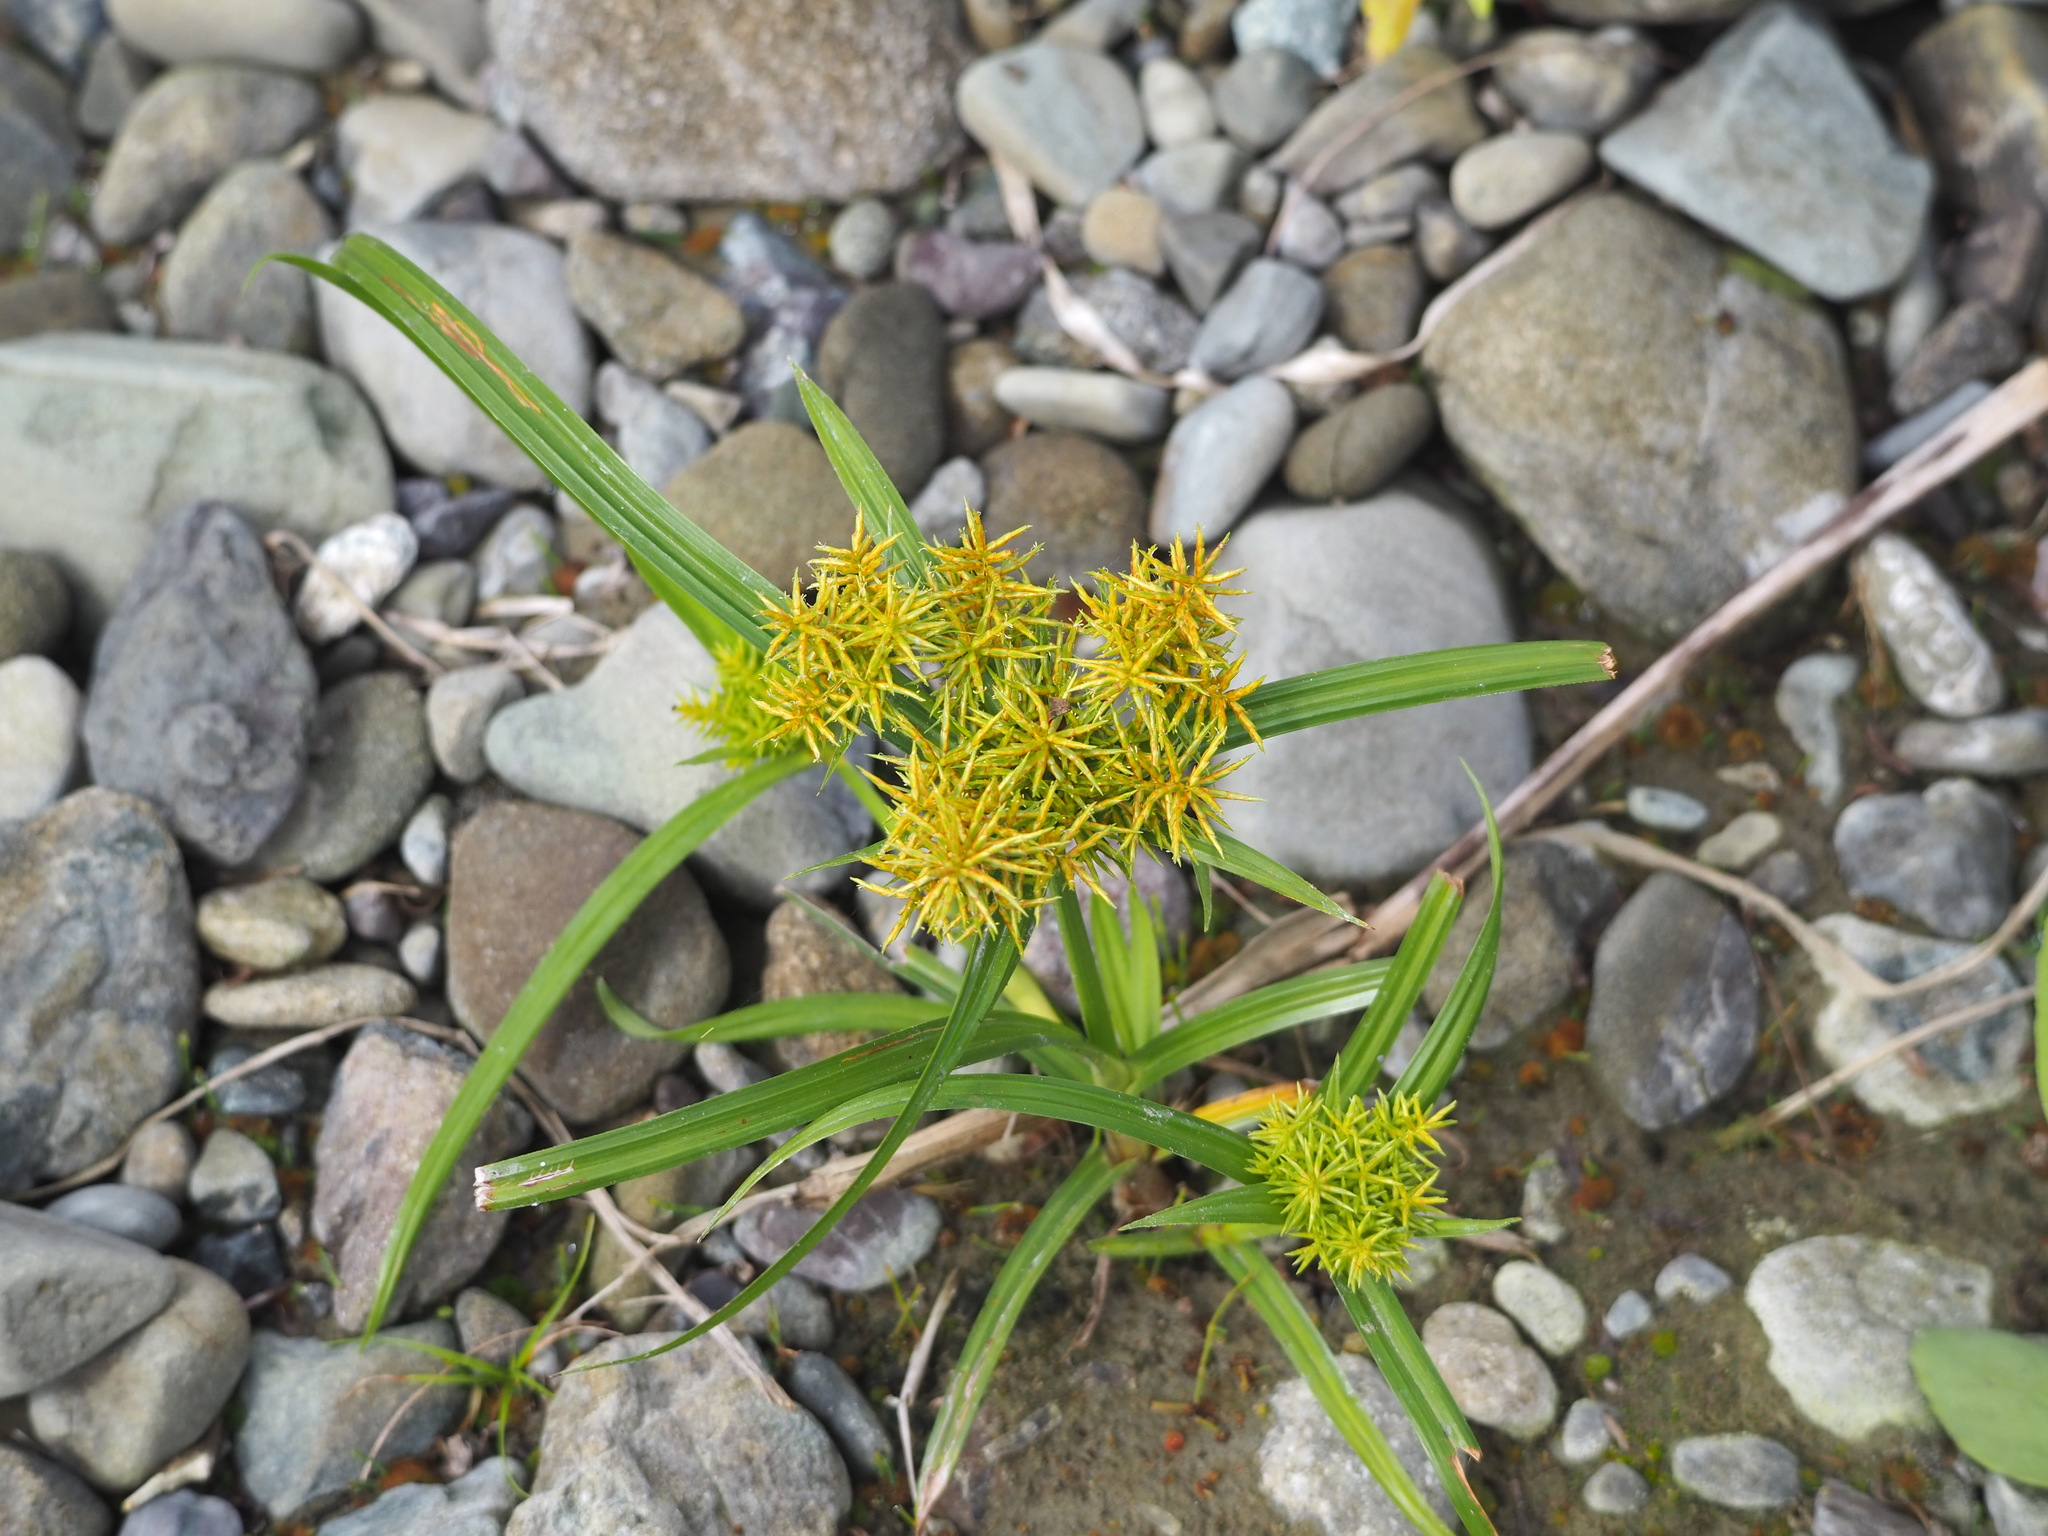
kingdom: Plantae
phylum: Tracheophyta
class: Liliopsida
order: Poales
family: Cyperaceae
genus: Cyperus
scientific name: Cyperus odoratus
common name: Fragrant flatsedge
